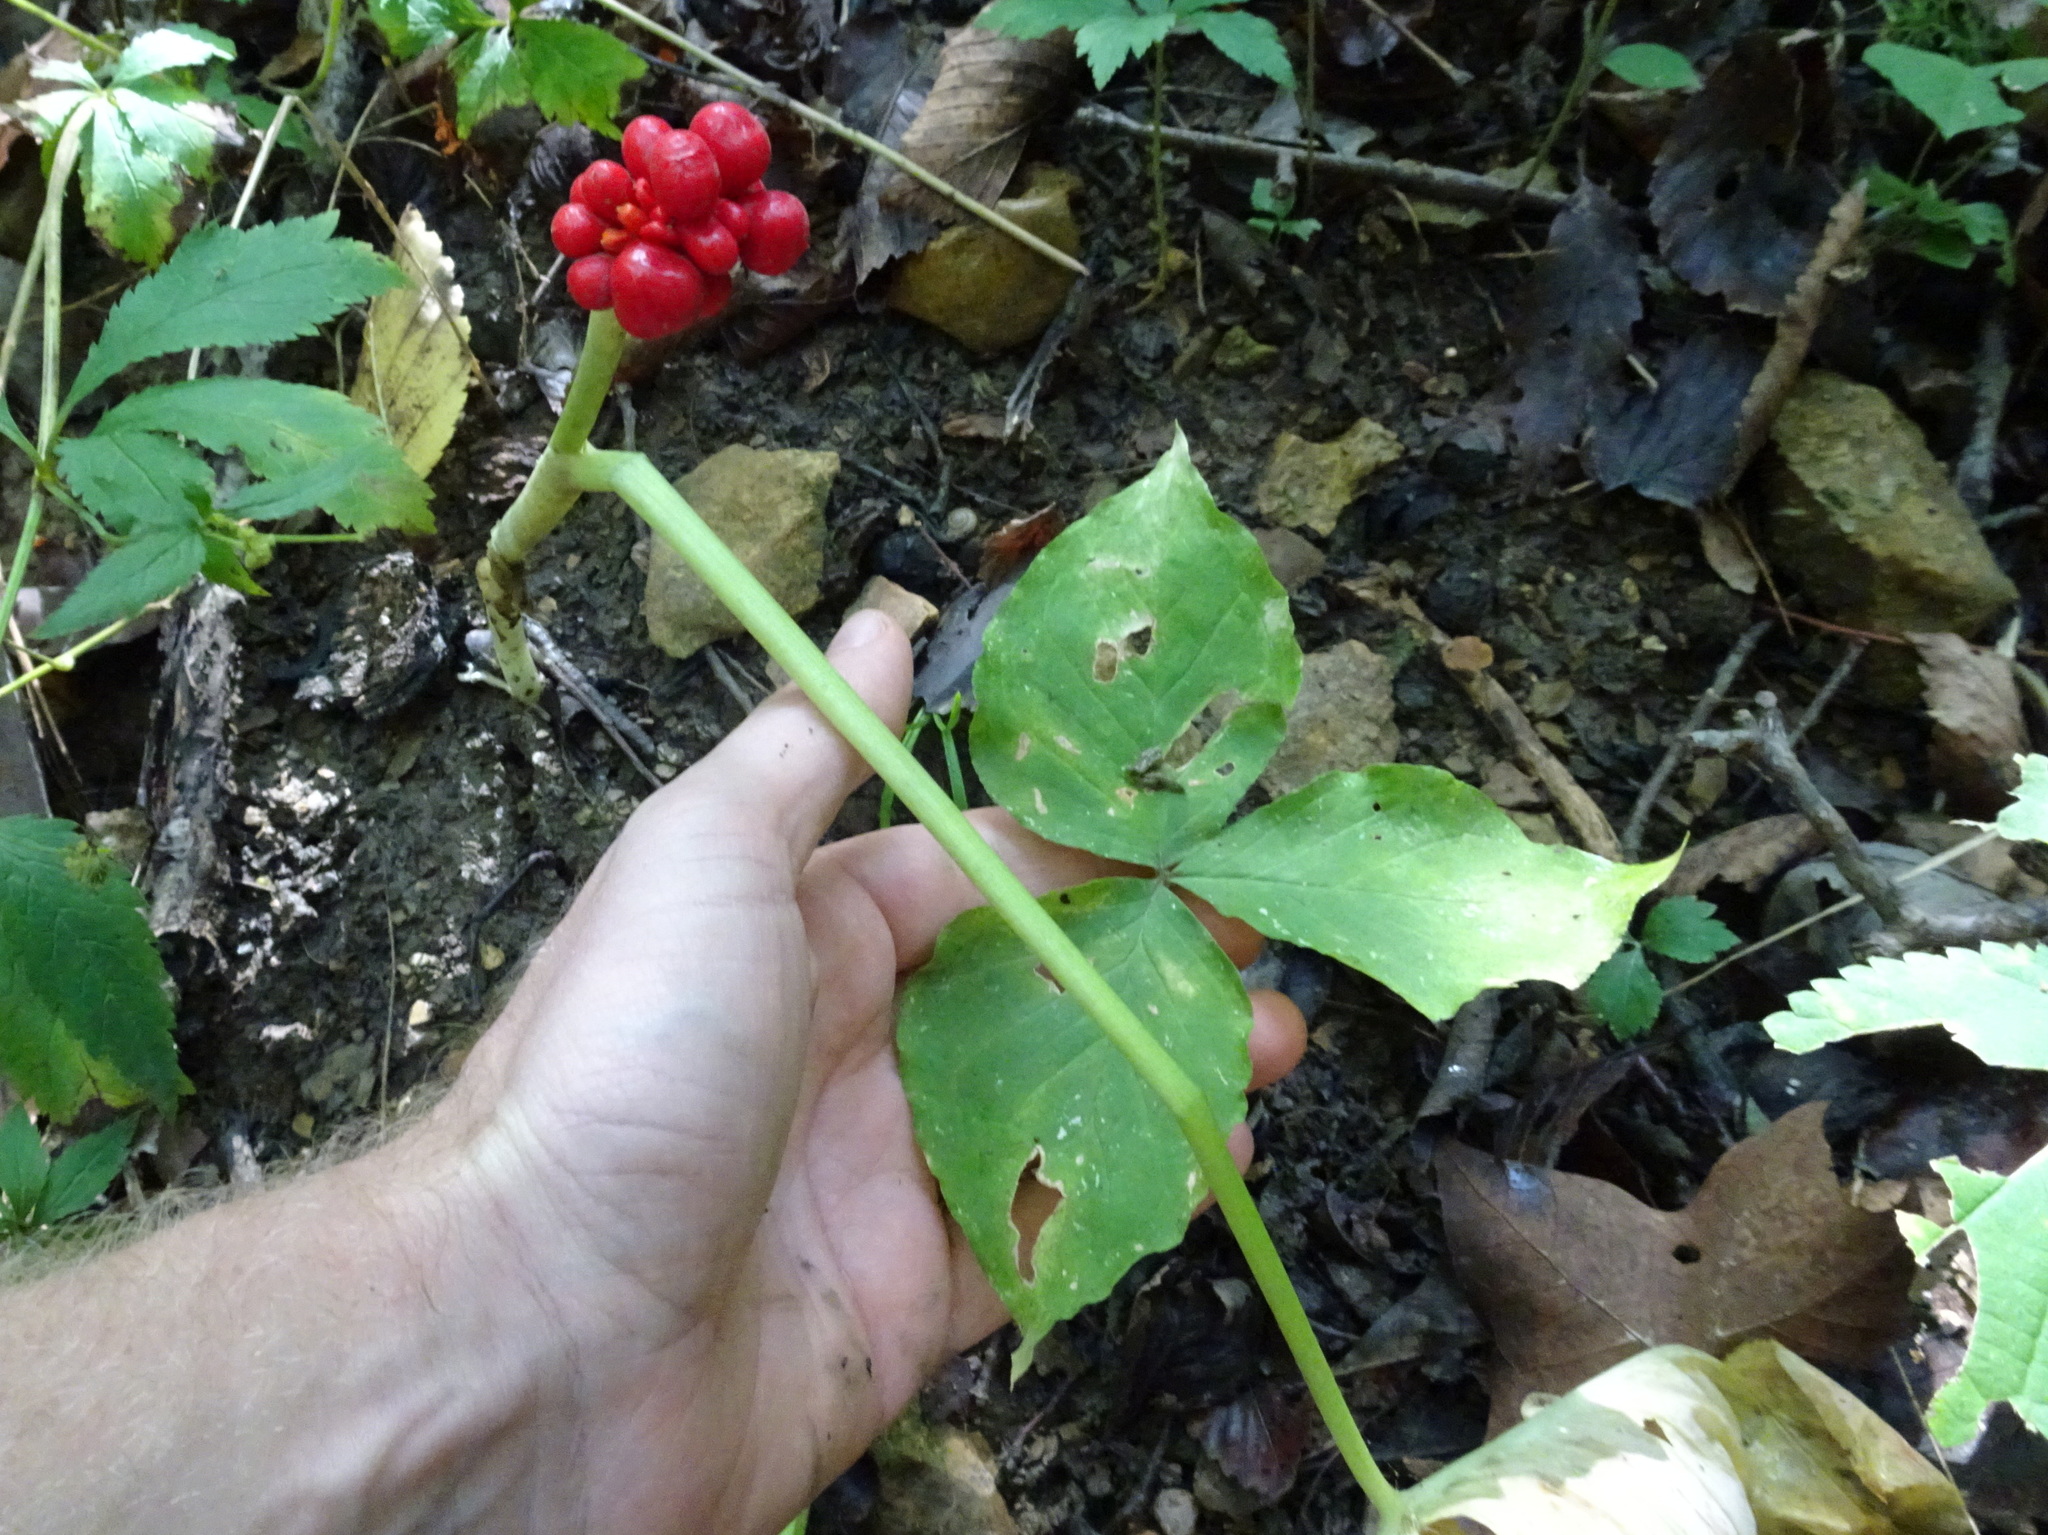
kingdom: Plantae
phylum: Tracheophyta
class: Liliopsida
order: Alismatales
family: Araceae
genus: Arisaema
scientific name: Arisaema triphyllum
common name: Jack-in-the-pulpit
